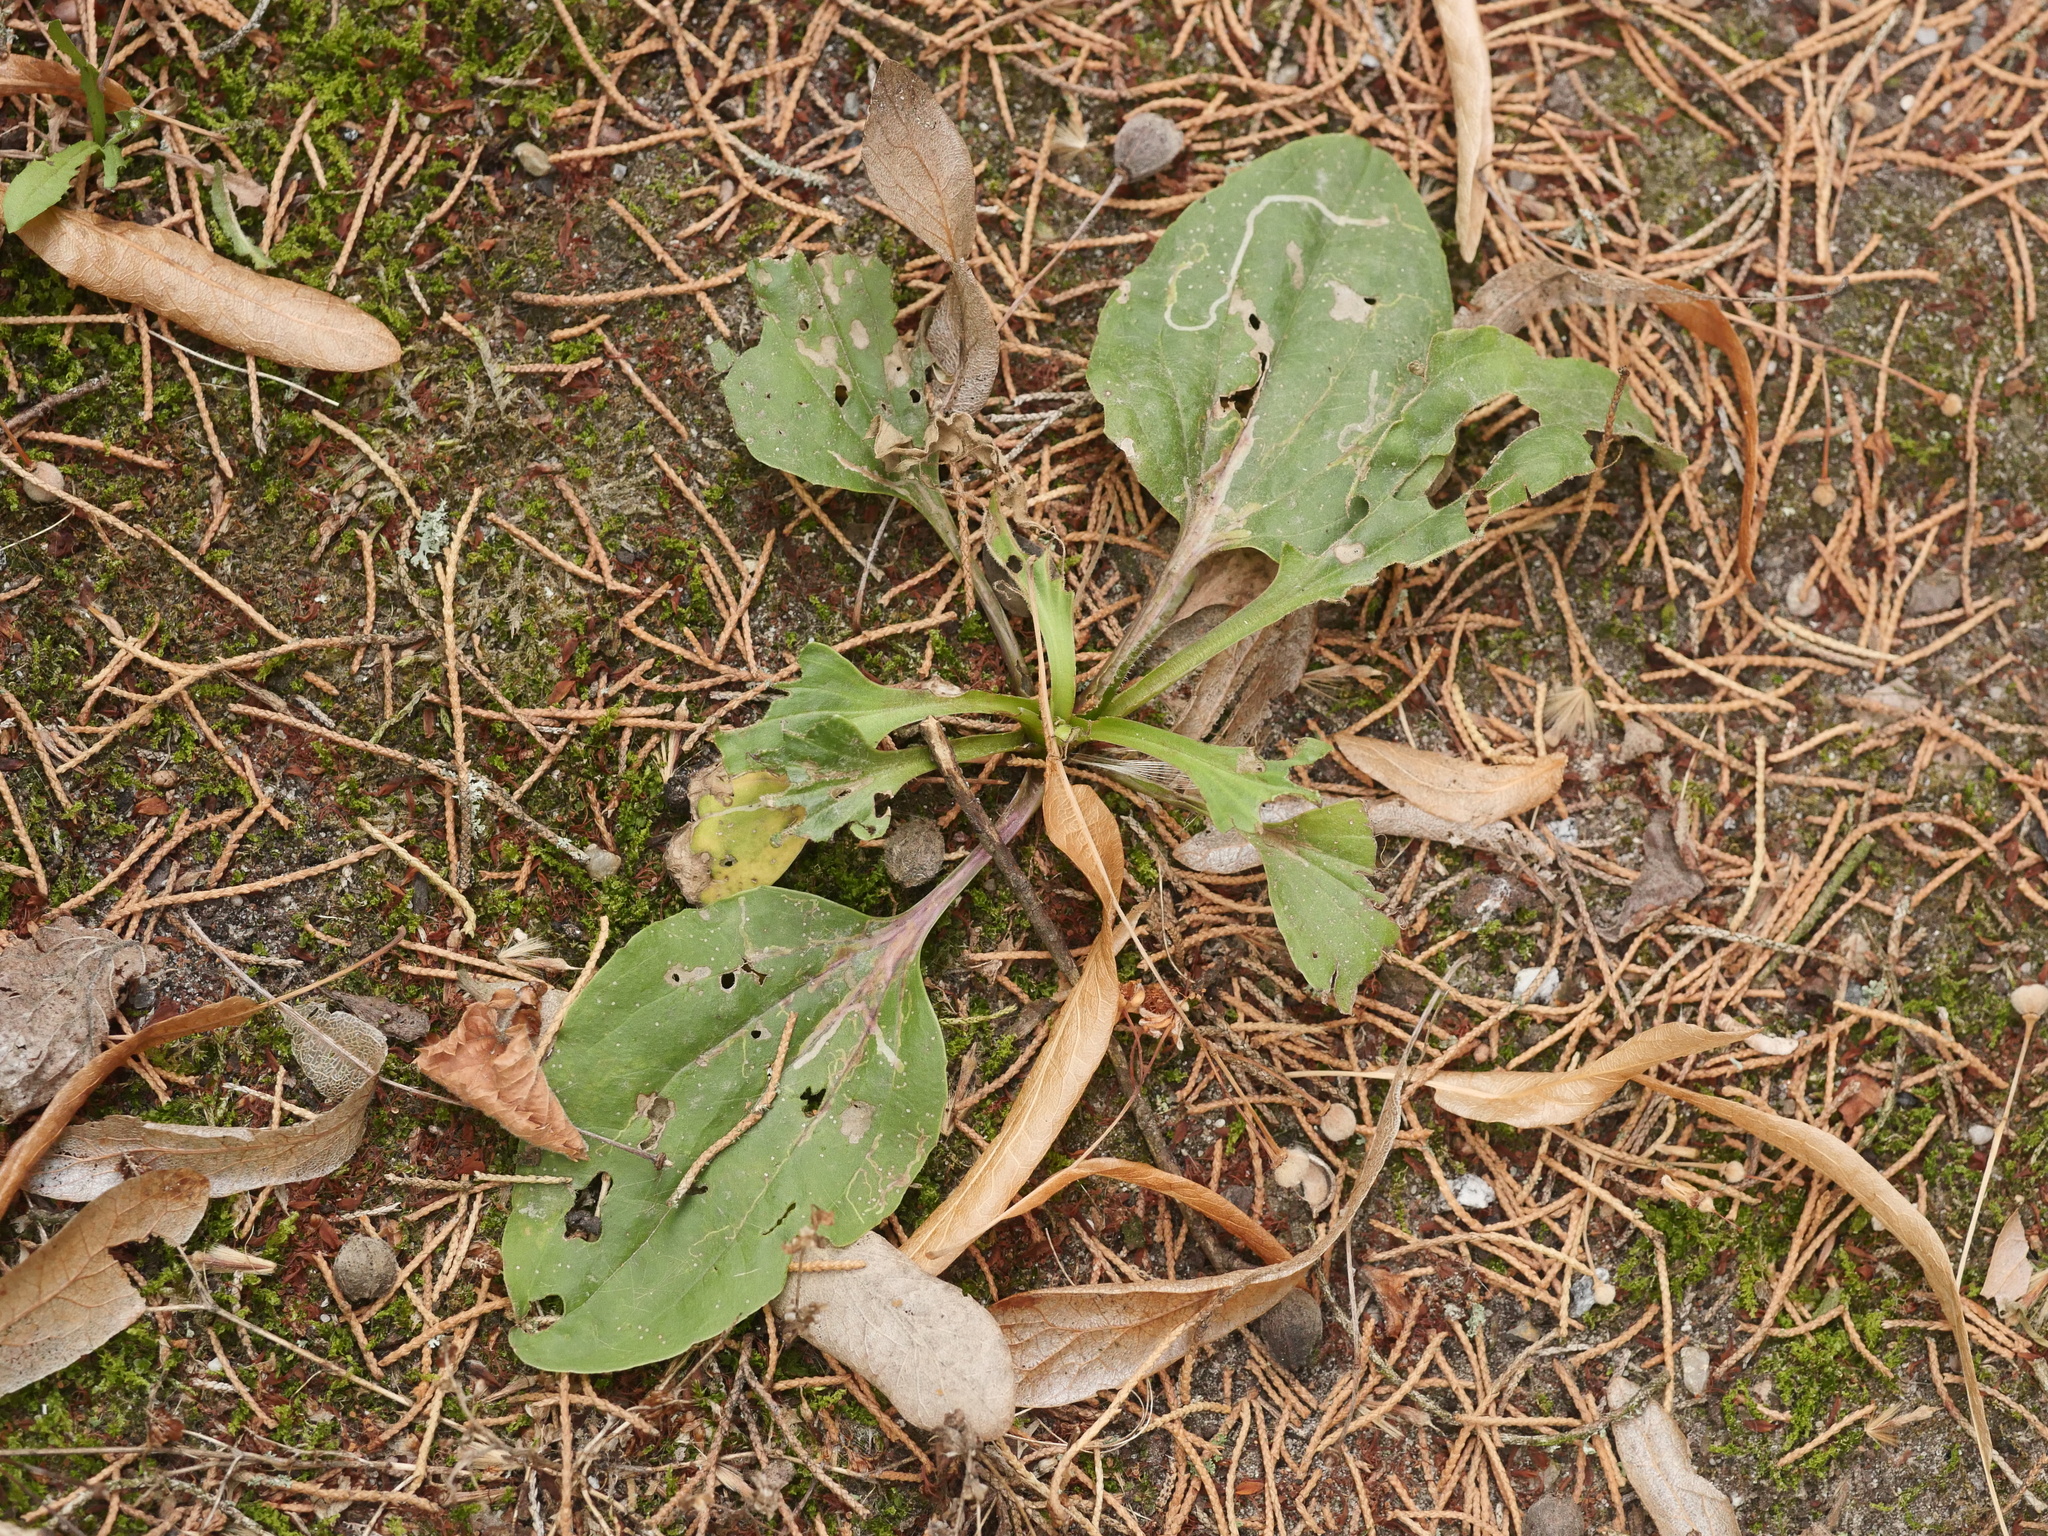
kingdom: Plantae
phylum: Tracheophyta
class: Magnoliopsida
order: Lamiales
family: Plantaginaceae
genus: Plantago
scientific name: Plantago major
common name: Common plantain
